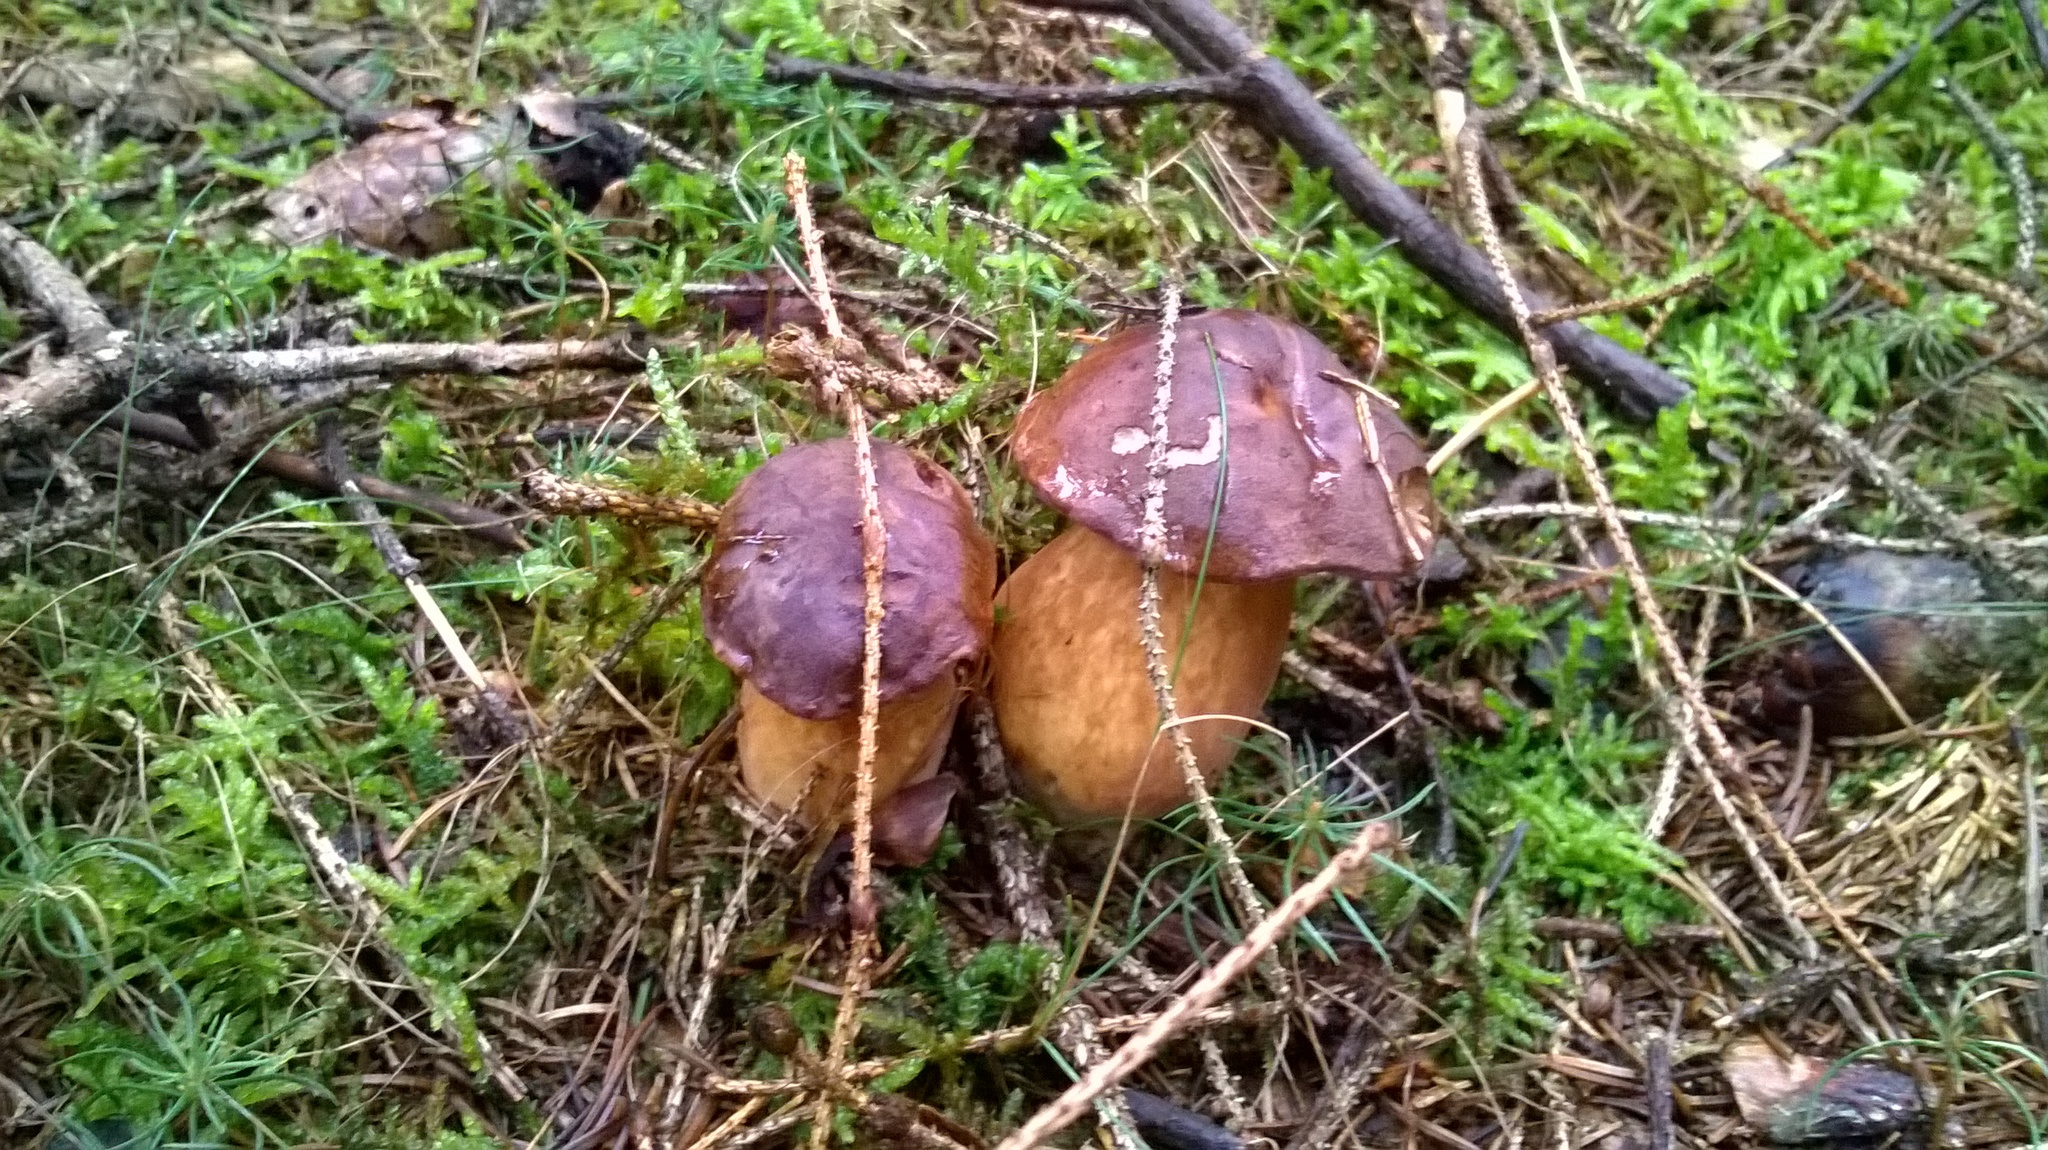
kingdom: Fungi
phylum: Basidiomycota
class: Agaricomycetes
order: Boletales
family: Boletaceae
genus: Imleria
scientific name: Imleria badia
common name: Bay bolete
